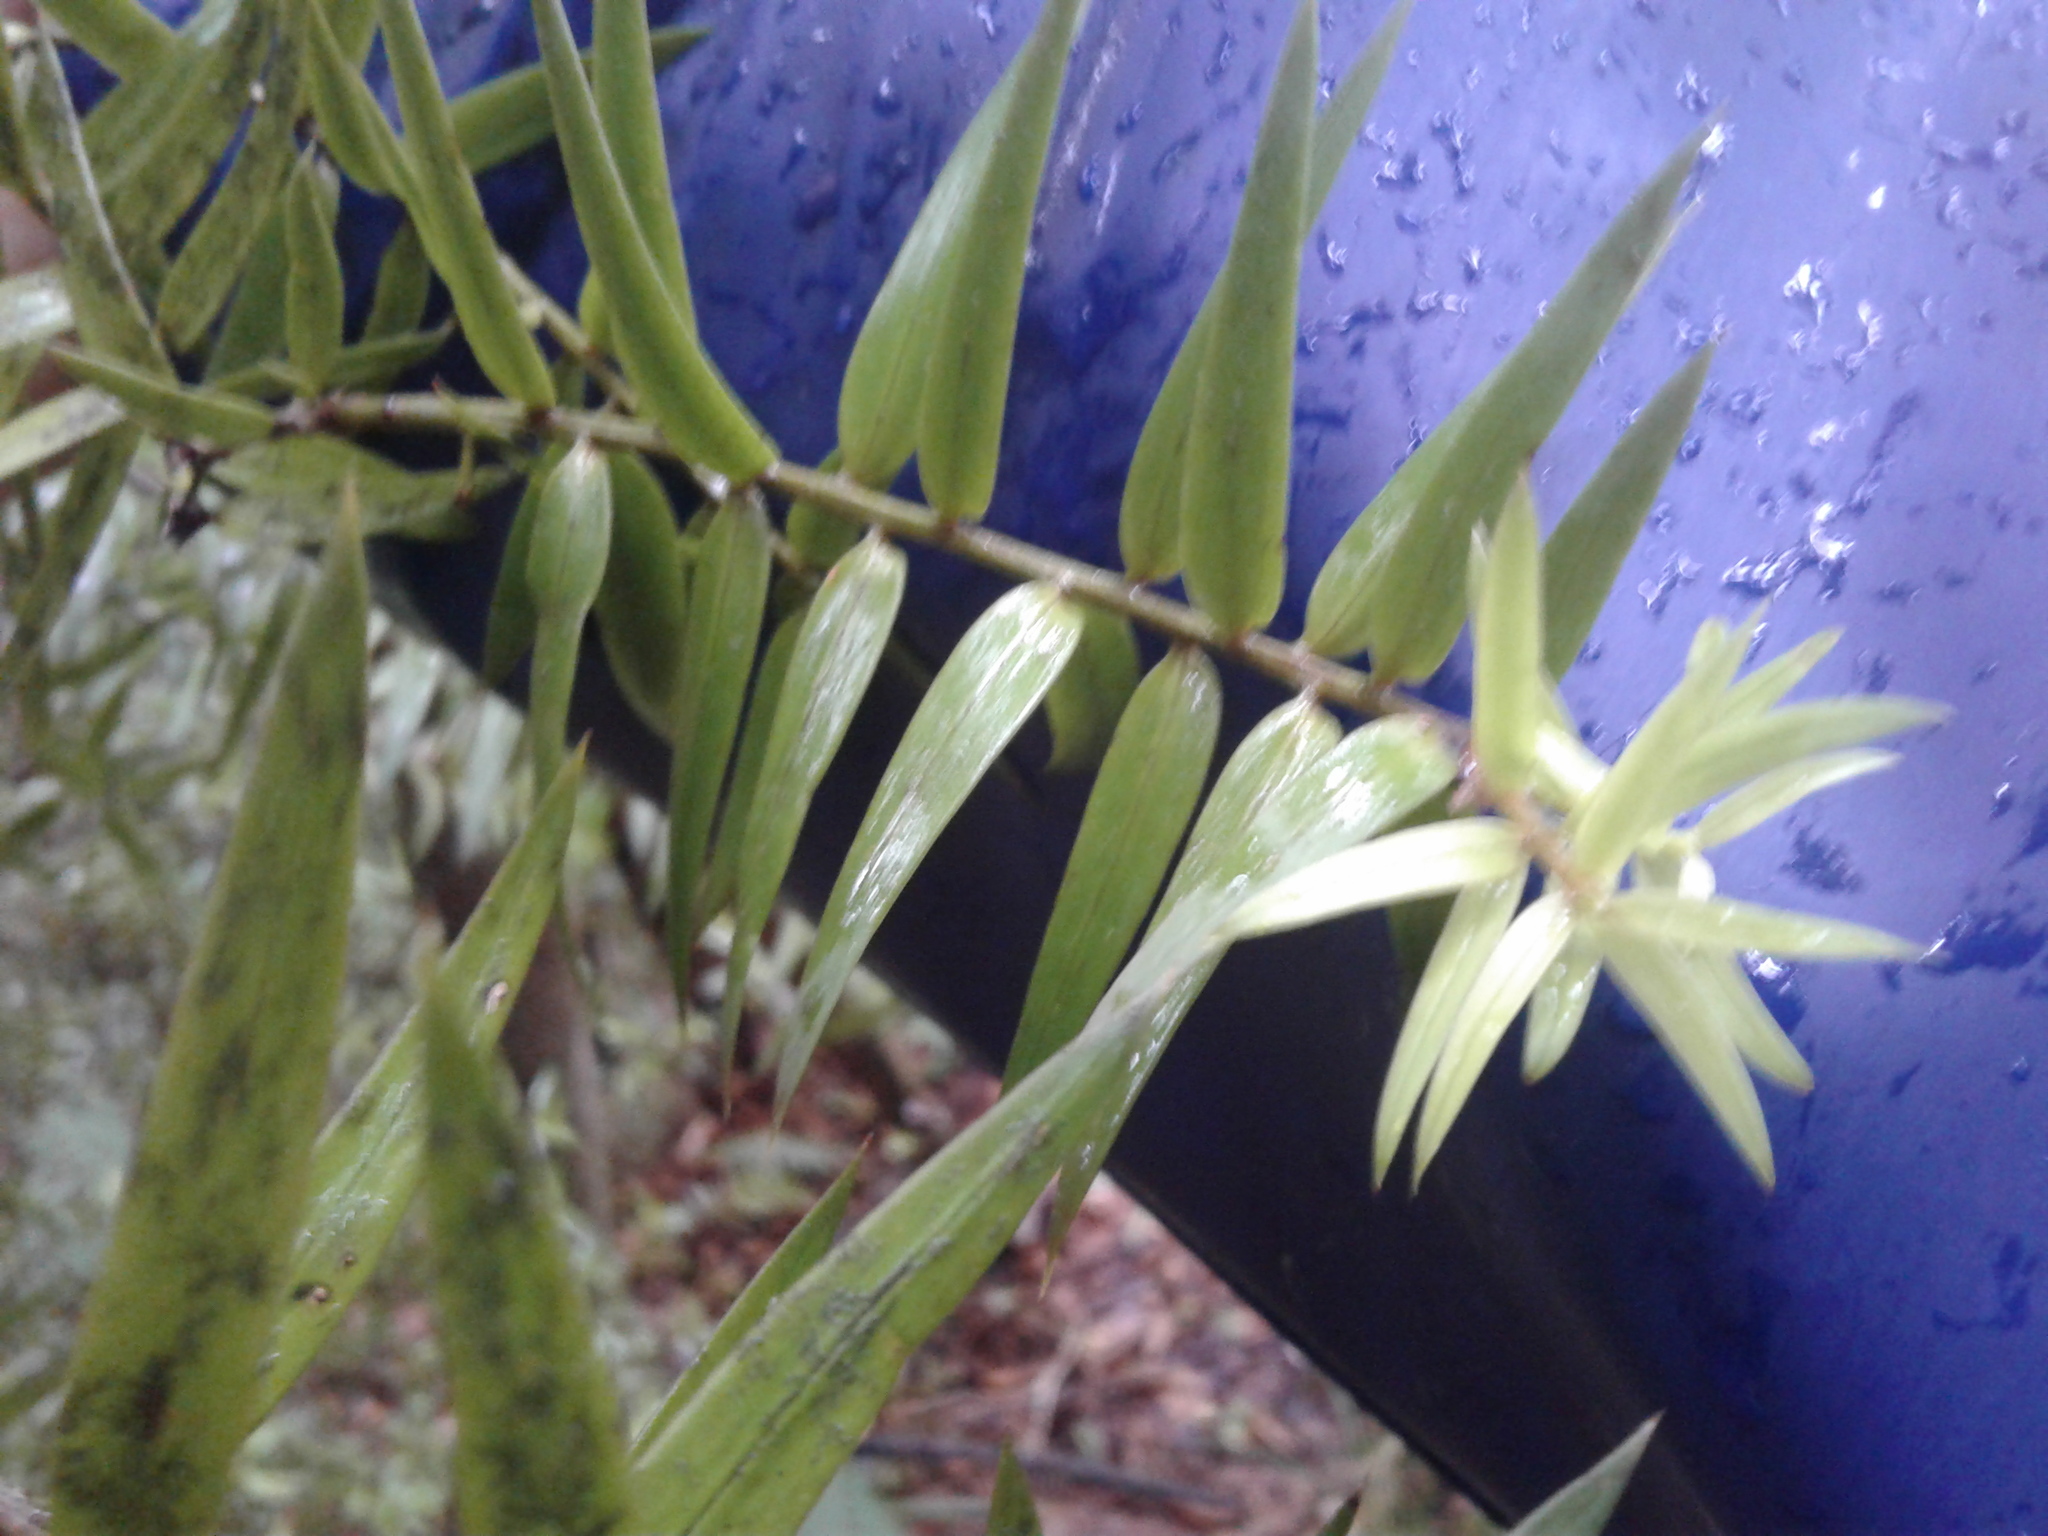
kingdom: Plantae
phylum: Tracheophyta
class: Pinopsida
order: Pinales
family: Podocarpaceae
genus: Podocarpus
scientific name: Podocarpus laetus
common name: Hall's totara
